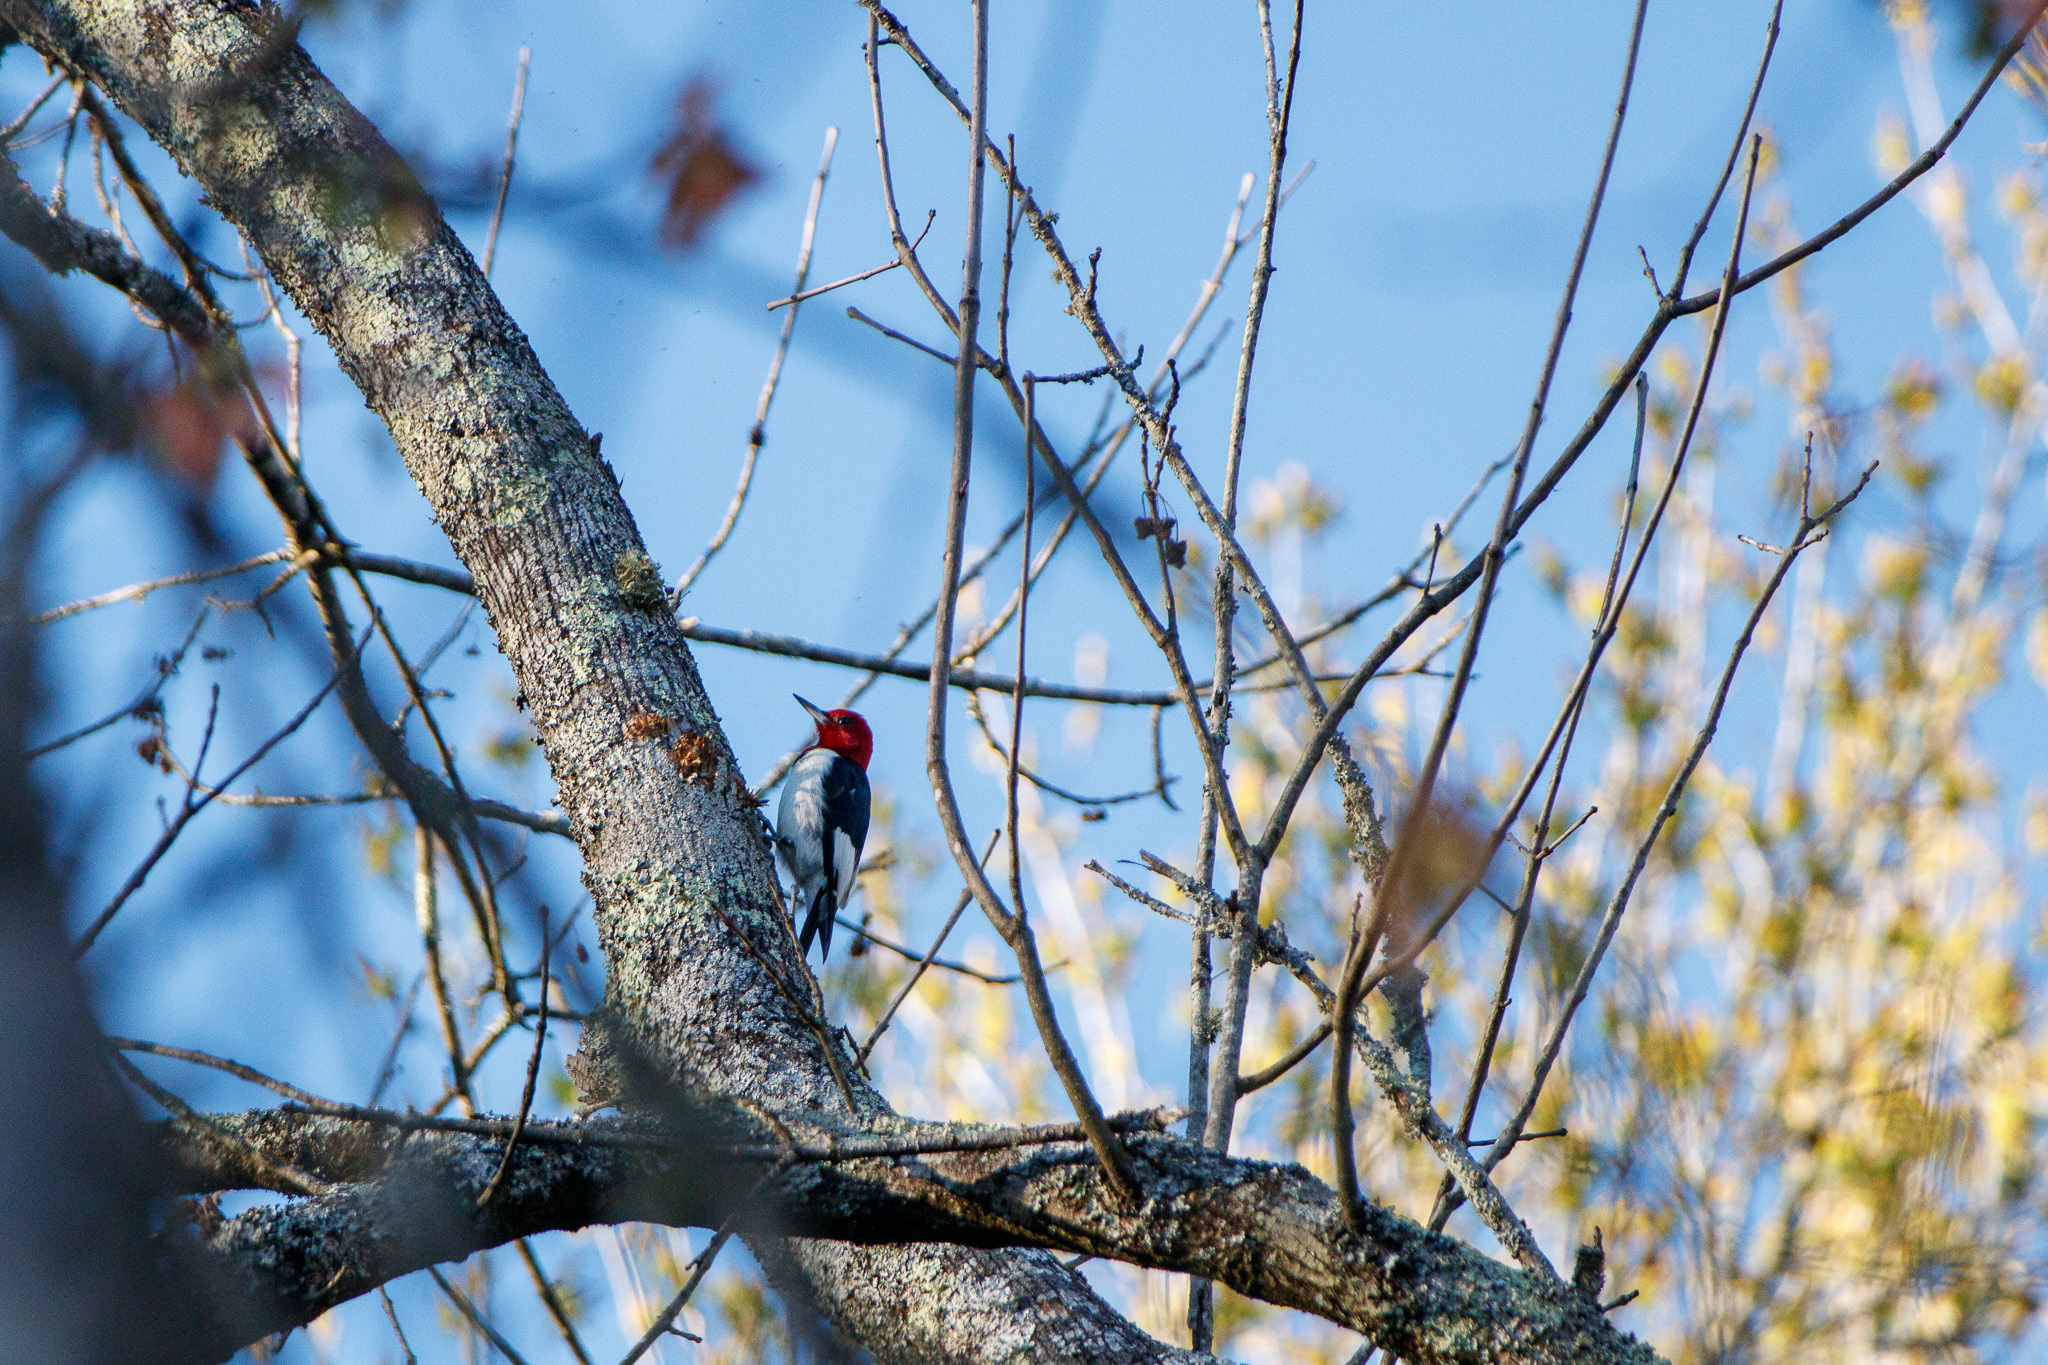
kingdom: Animalia
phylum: Chordata
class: Aves
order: Piciformes
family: Picidae
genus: Melanerpes
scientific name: Melanerpes erythrocephalus
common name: Red-headed woodpecker
